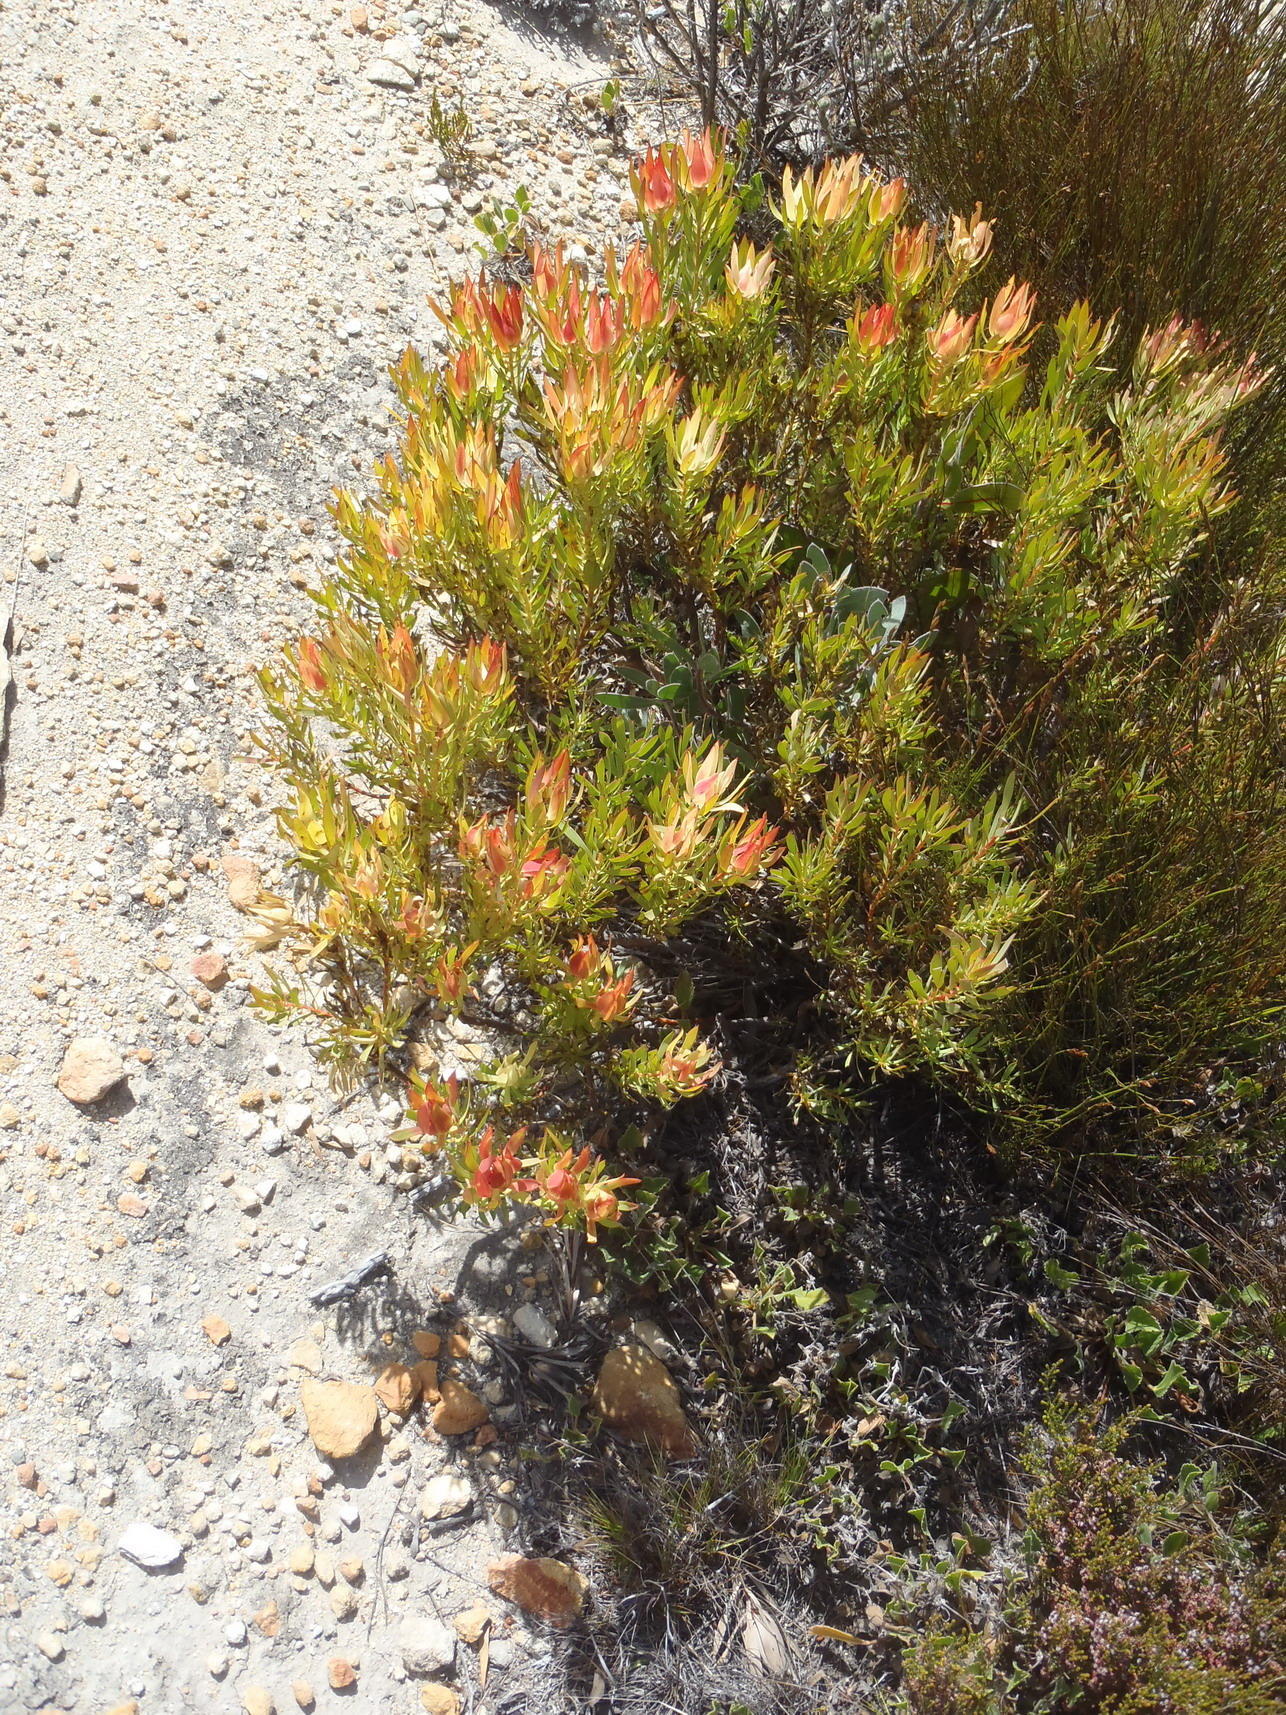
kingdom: Plantae
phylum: Tracheophyta
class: Magnoliopsida
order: Proteales
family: Proteaceae
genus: Leucadendron
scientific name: Leucadendron salignum
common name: Common sunshine conebush
